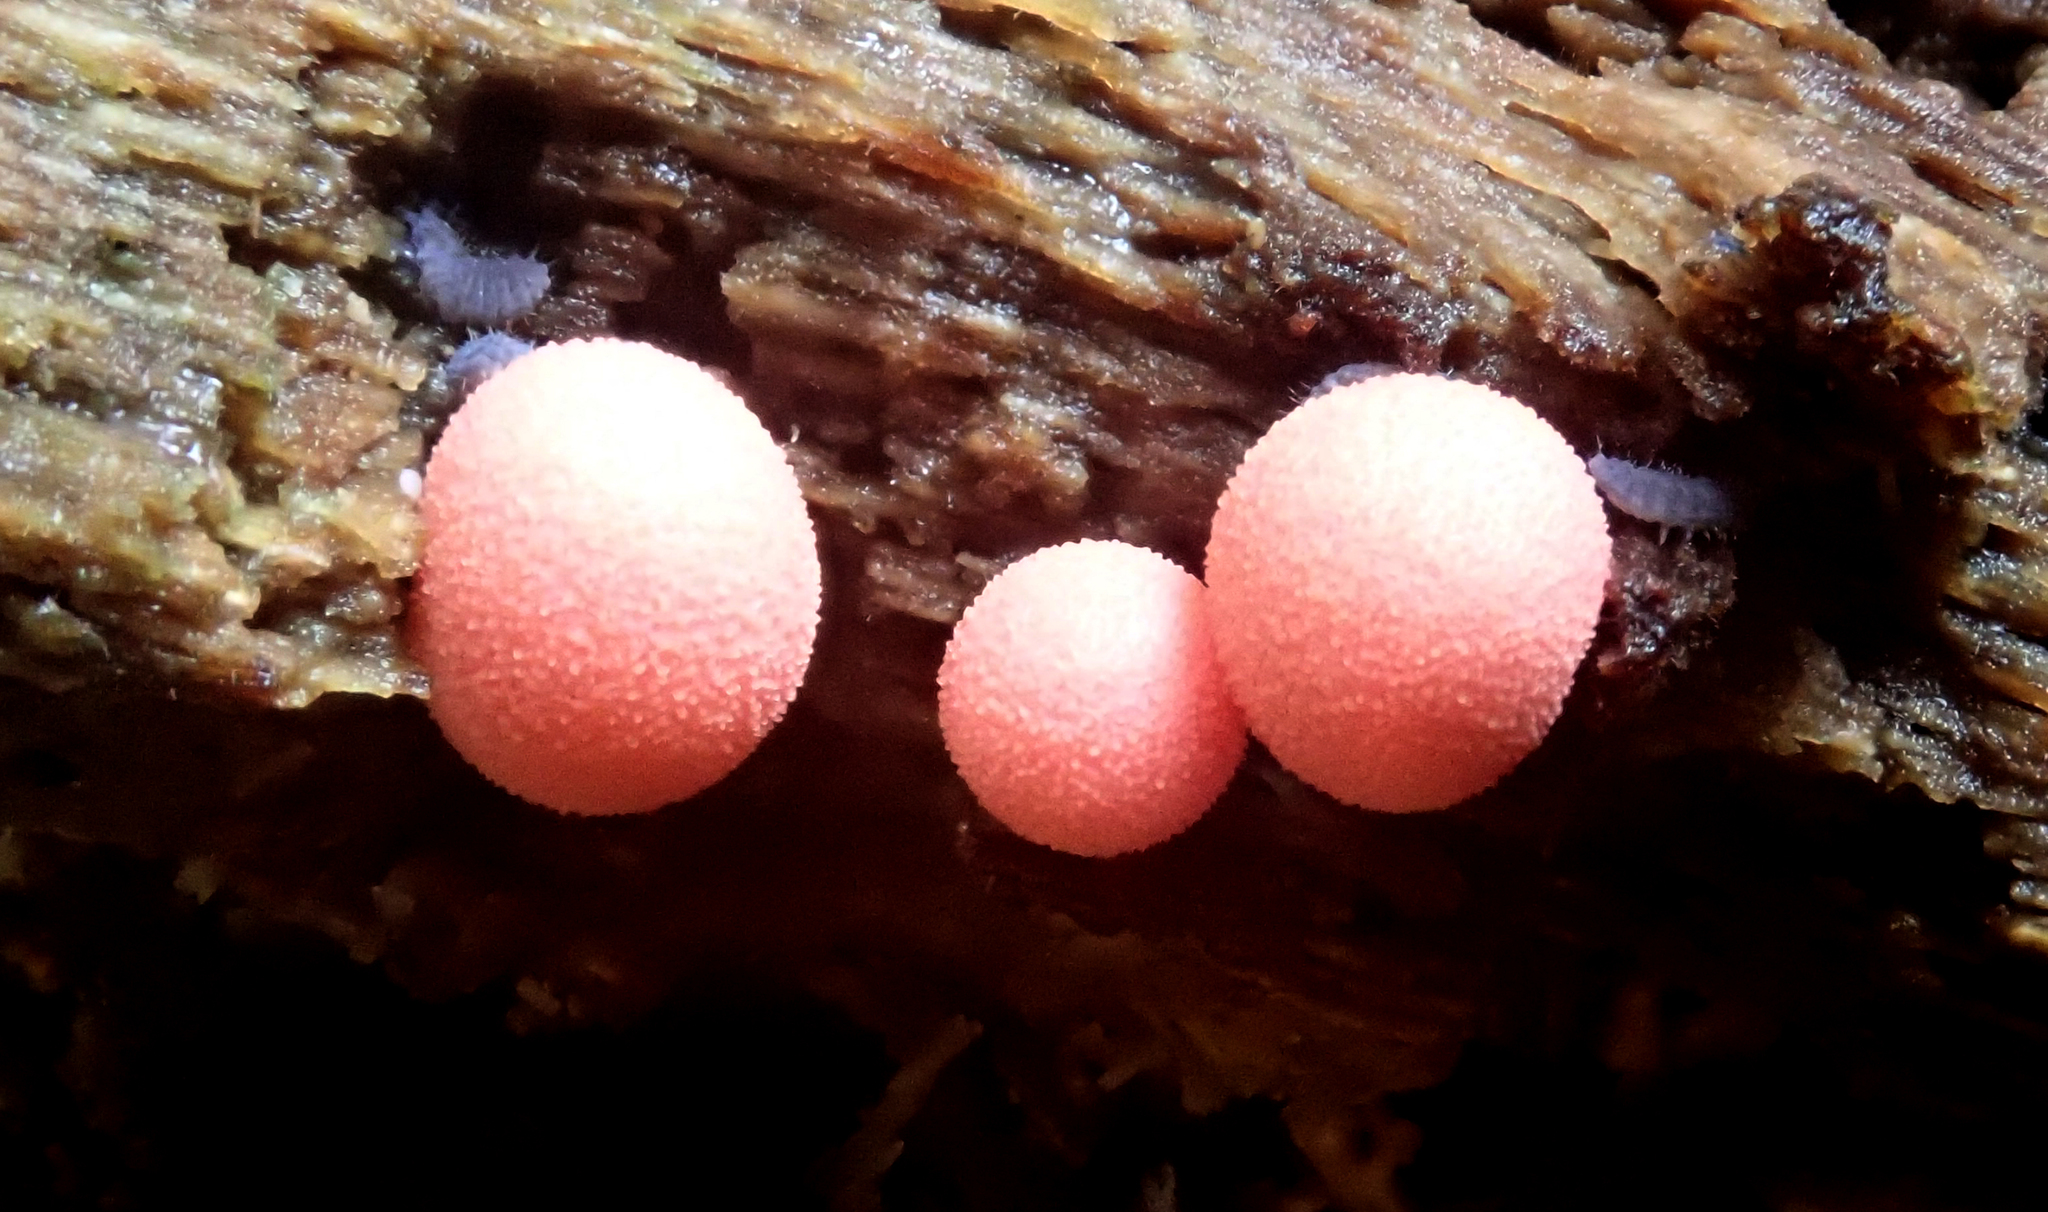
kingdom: Protozoa
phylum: Mycetozoa
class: Myxomycetes
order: Cribrariales
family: Tubiferaceae
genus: Lycogala
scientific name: Lycogala epidendrum
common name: Wolf's milk
